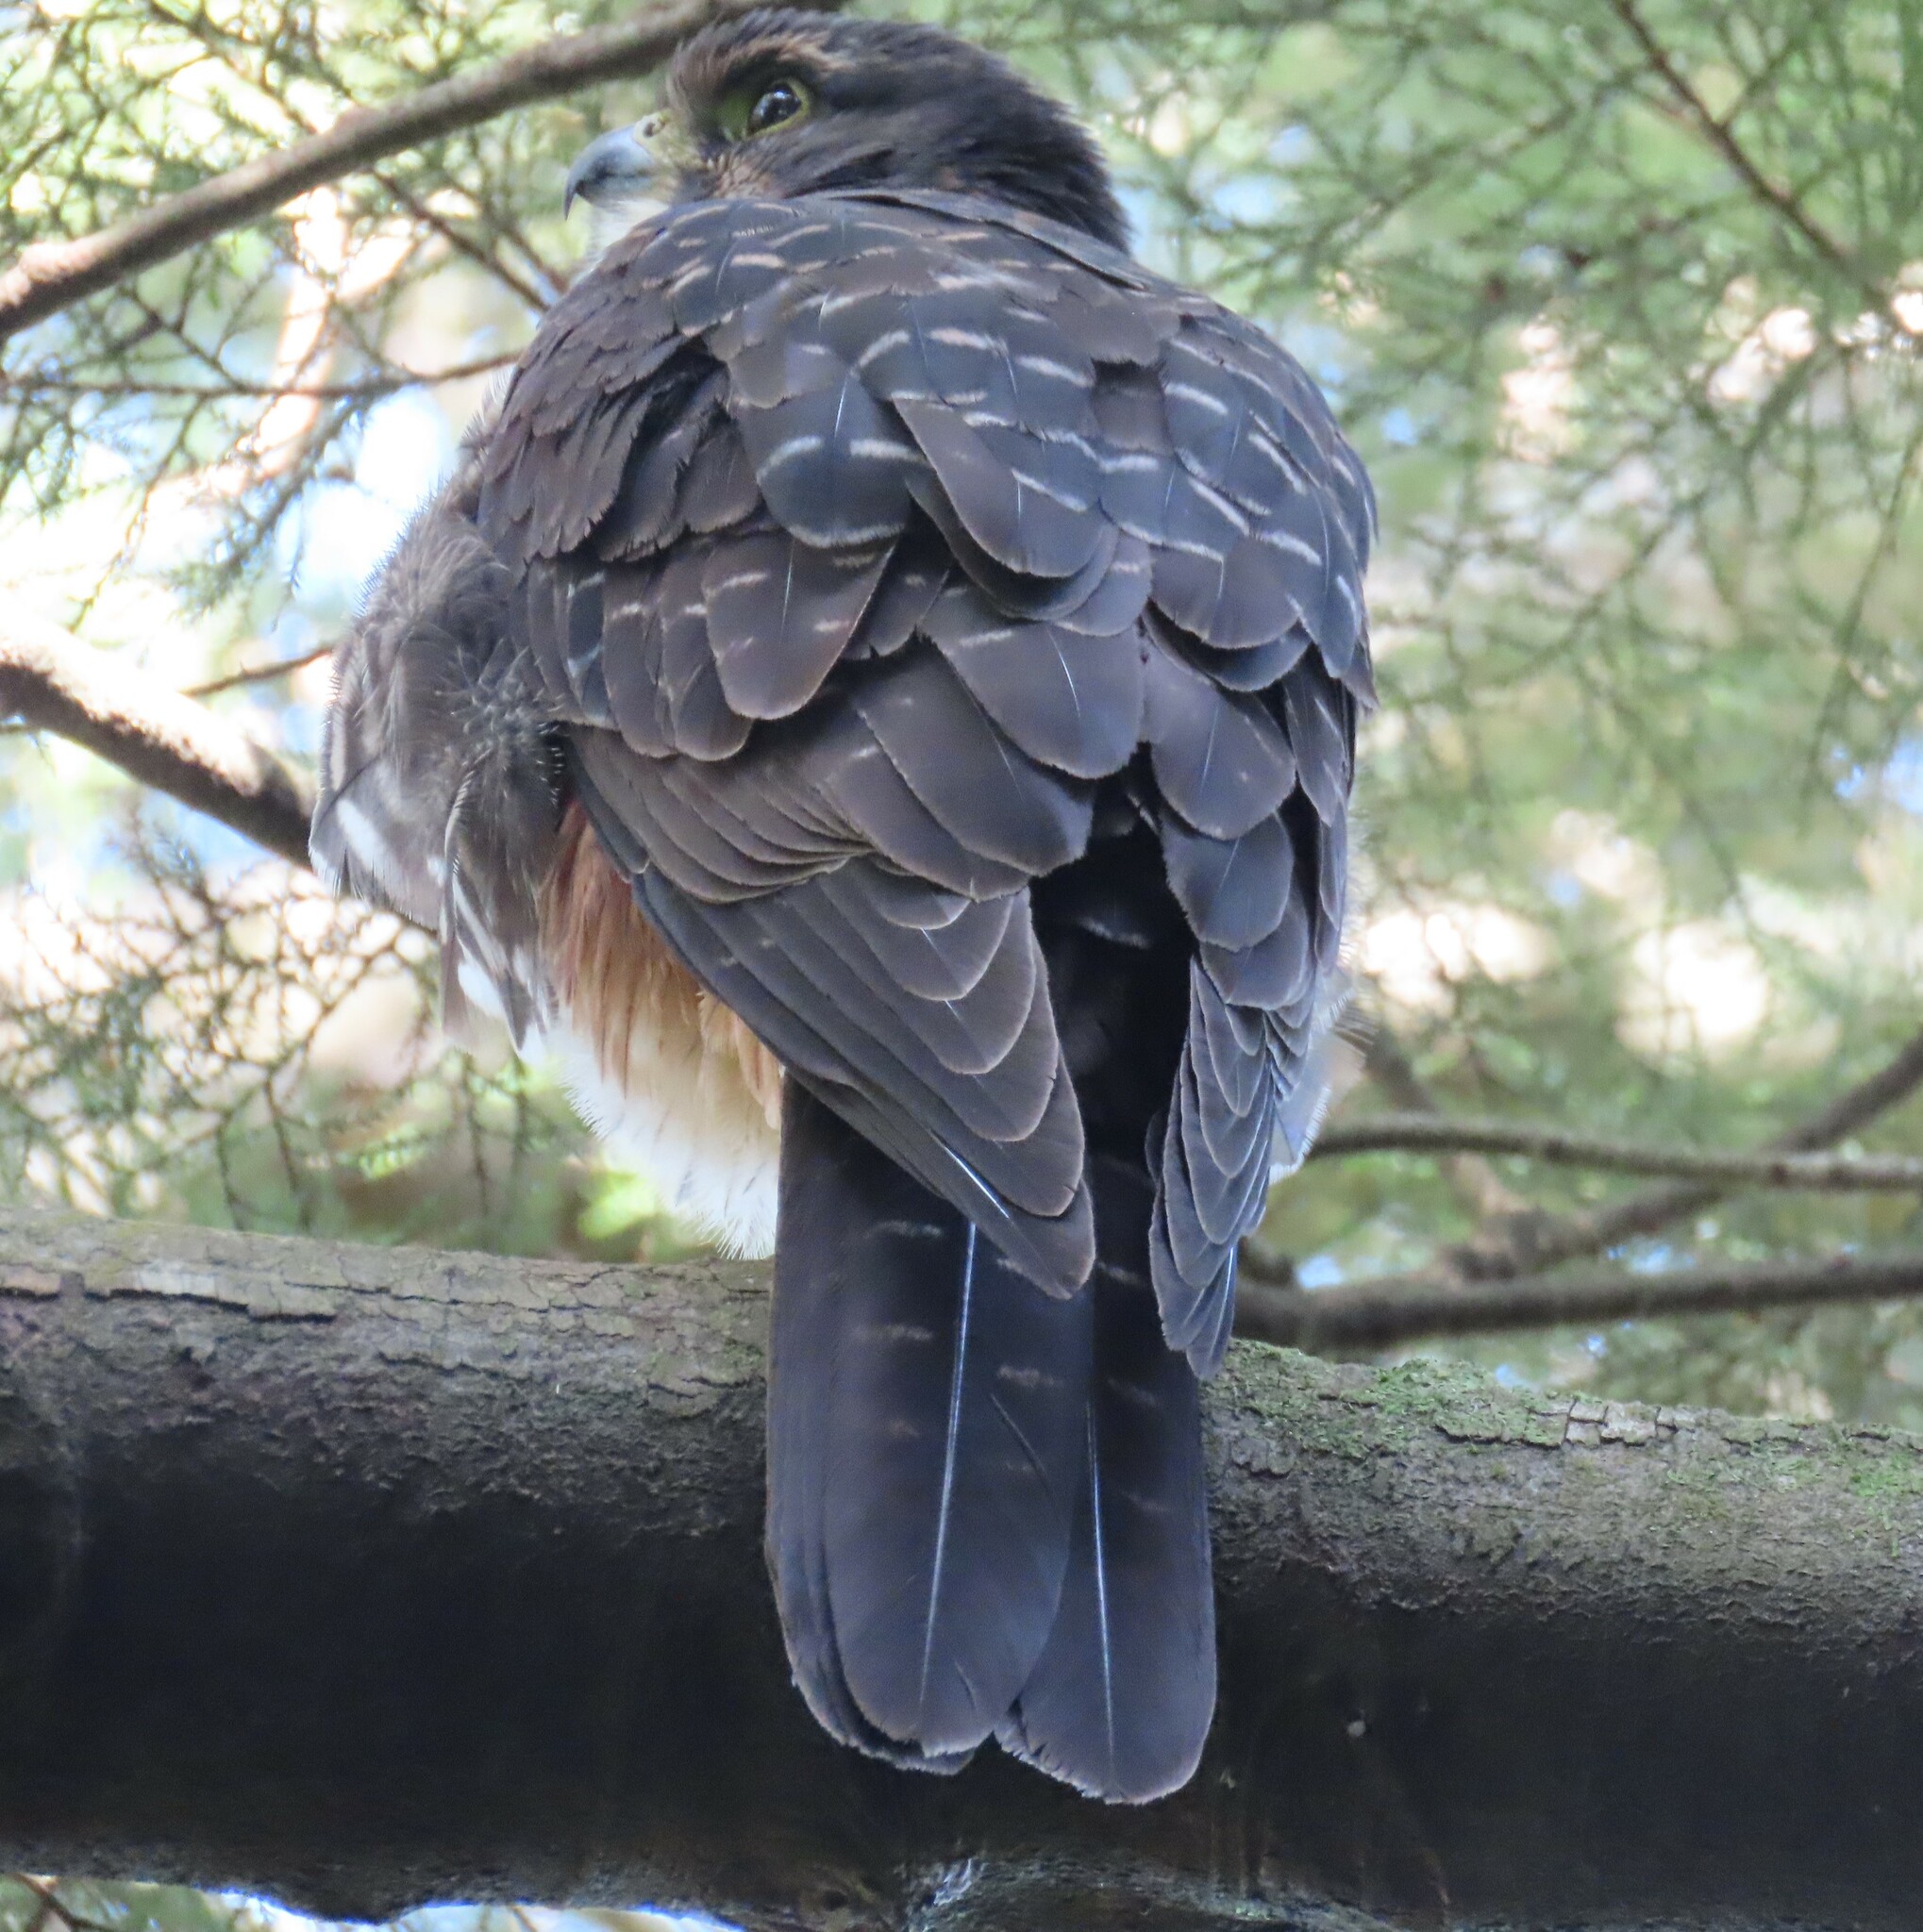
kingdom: Animalia
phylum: Chordata
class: Aves
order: Falconiformes
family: Falconidae
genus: Falco
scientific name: Falco novaeseelandiae
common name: New zealand falcon
